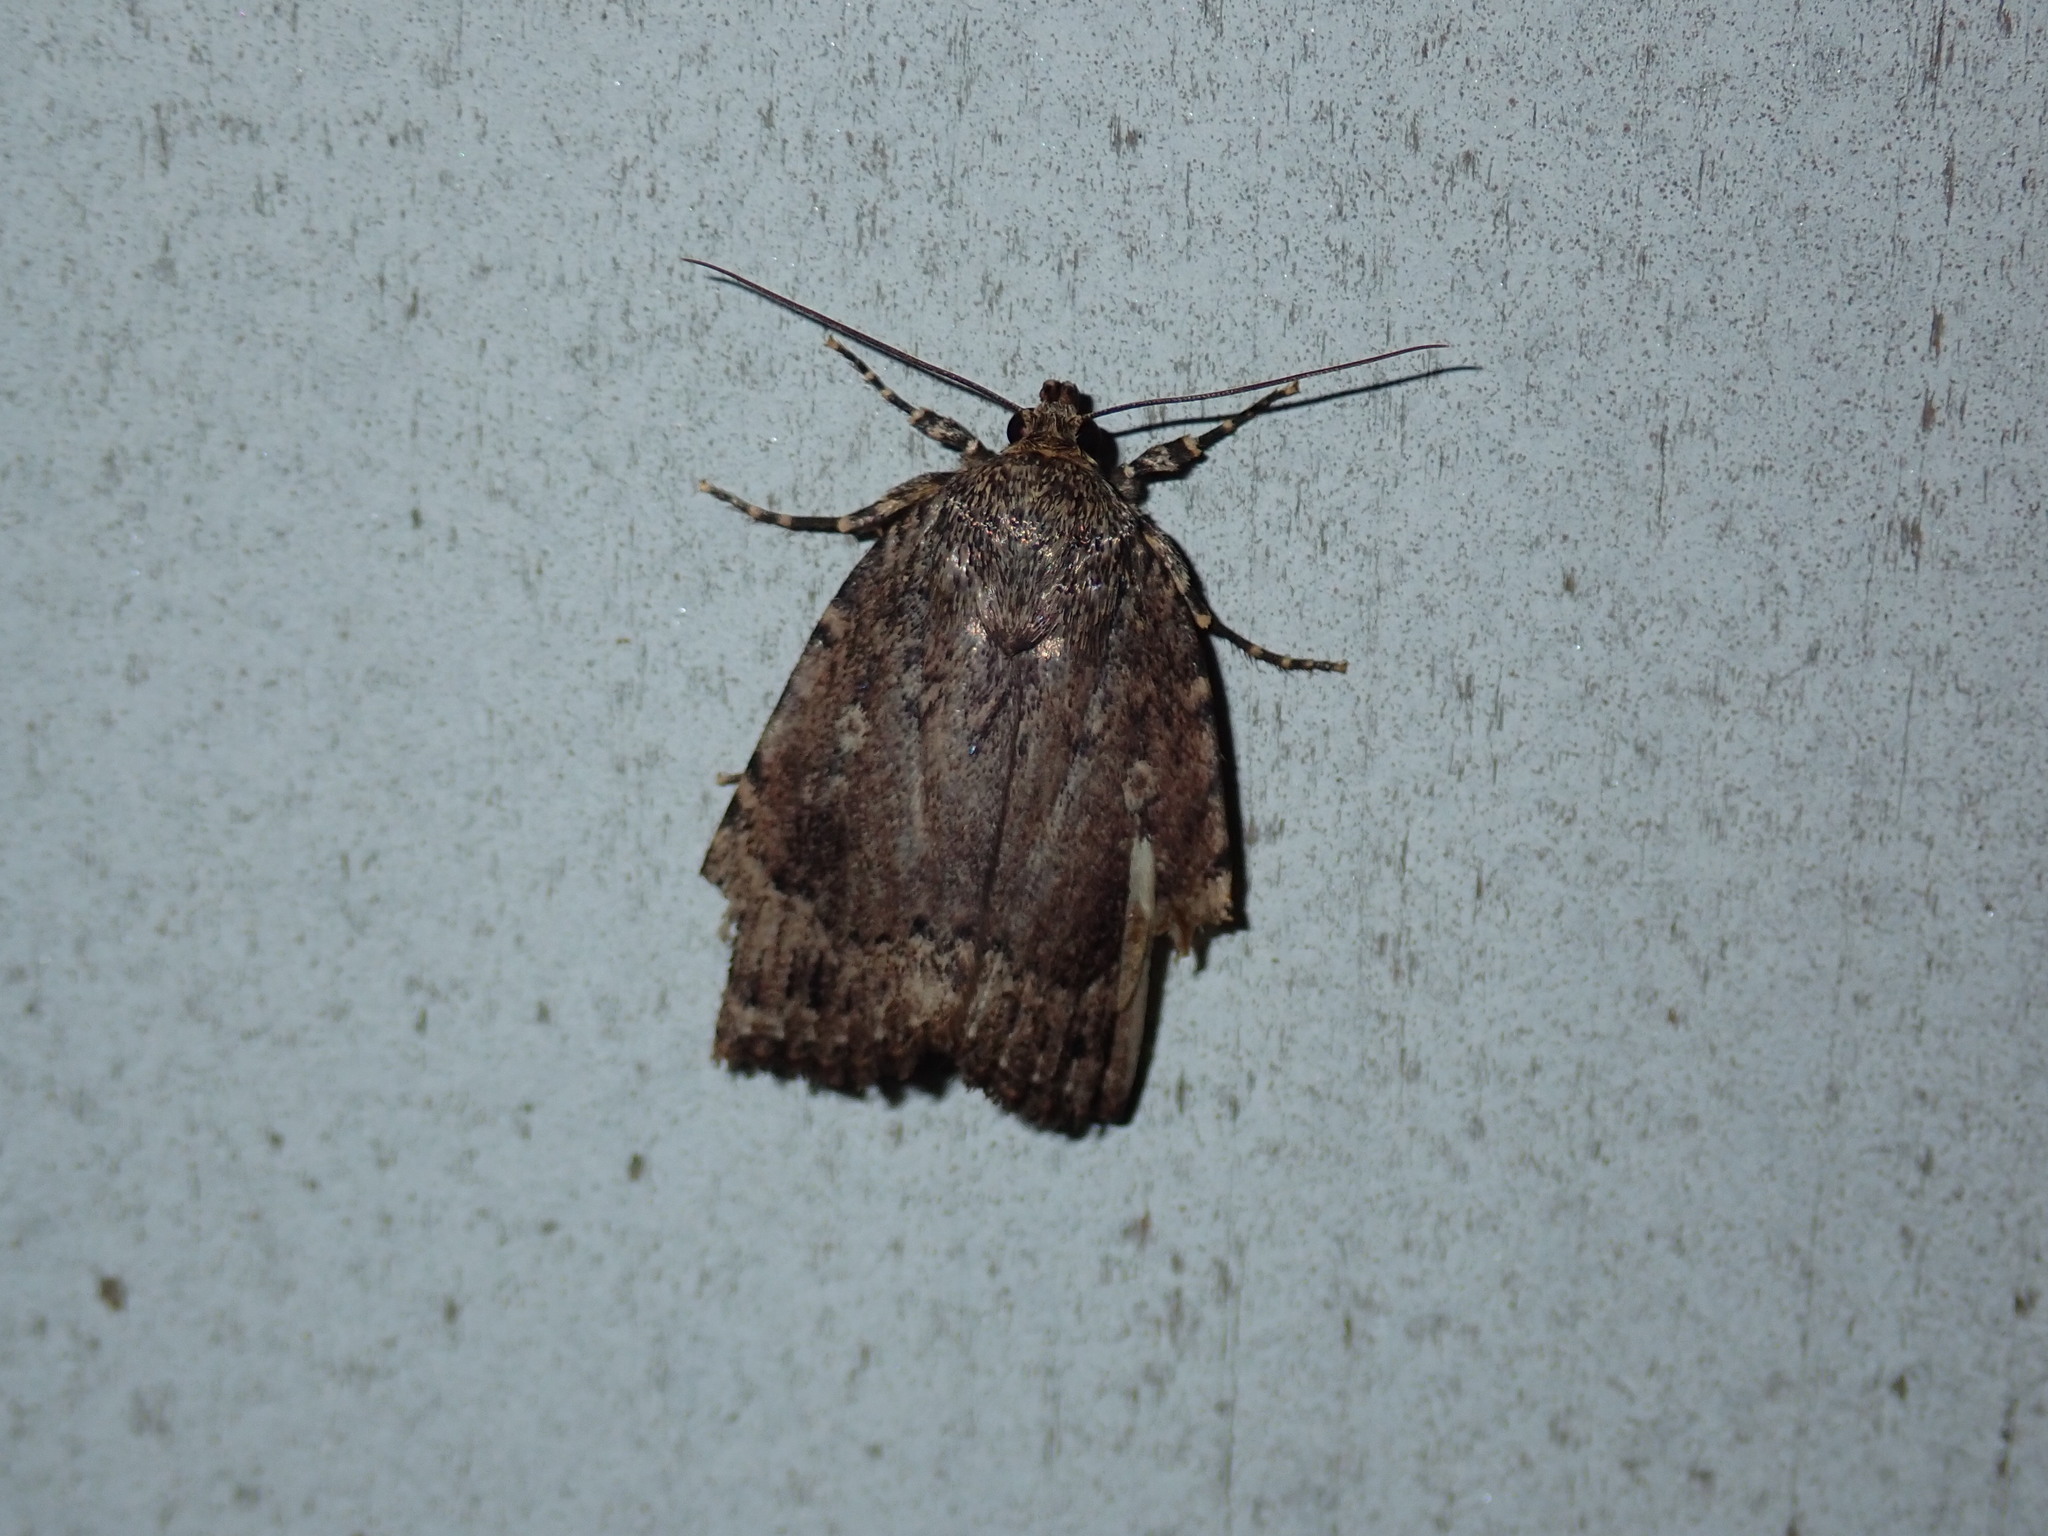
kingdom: Animalia
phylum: Arthropoda
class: Insecta
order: Lepidoptera
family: Noctuidae
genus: Amphipyra
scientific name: Amphipyra pyramidoides
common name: American copper underwing
